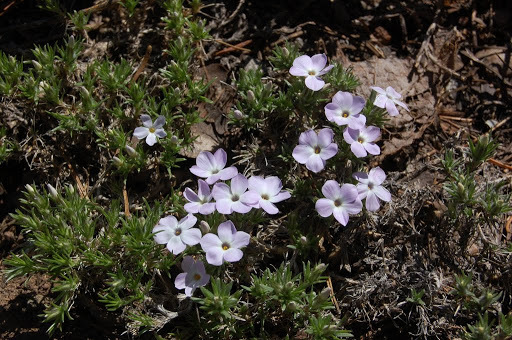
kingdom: Plantae
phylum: Tracheophyta
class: Magnoliopsida
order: Ericales
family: Polemoniaceae
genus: Phlox
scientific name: Phlox diffusa
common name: Mat phlox
